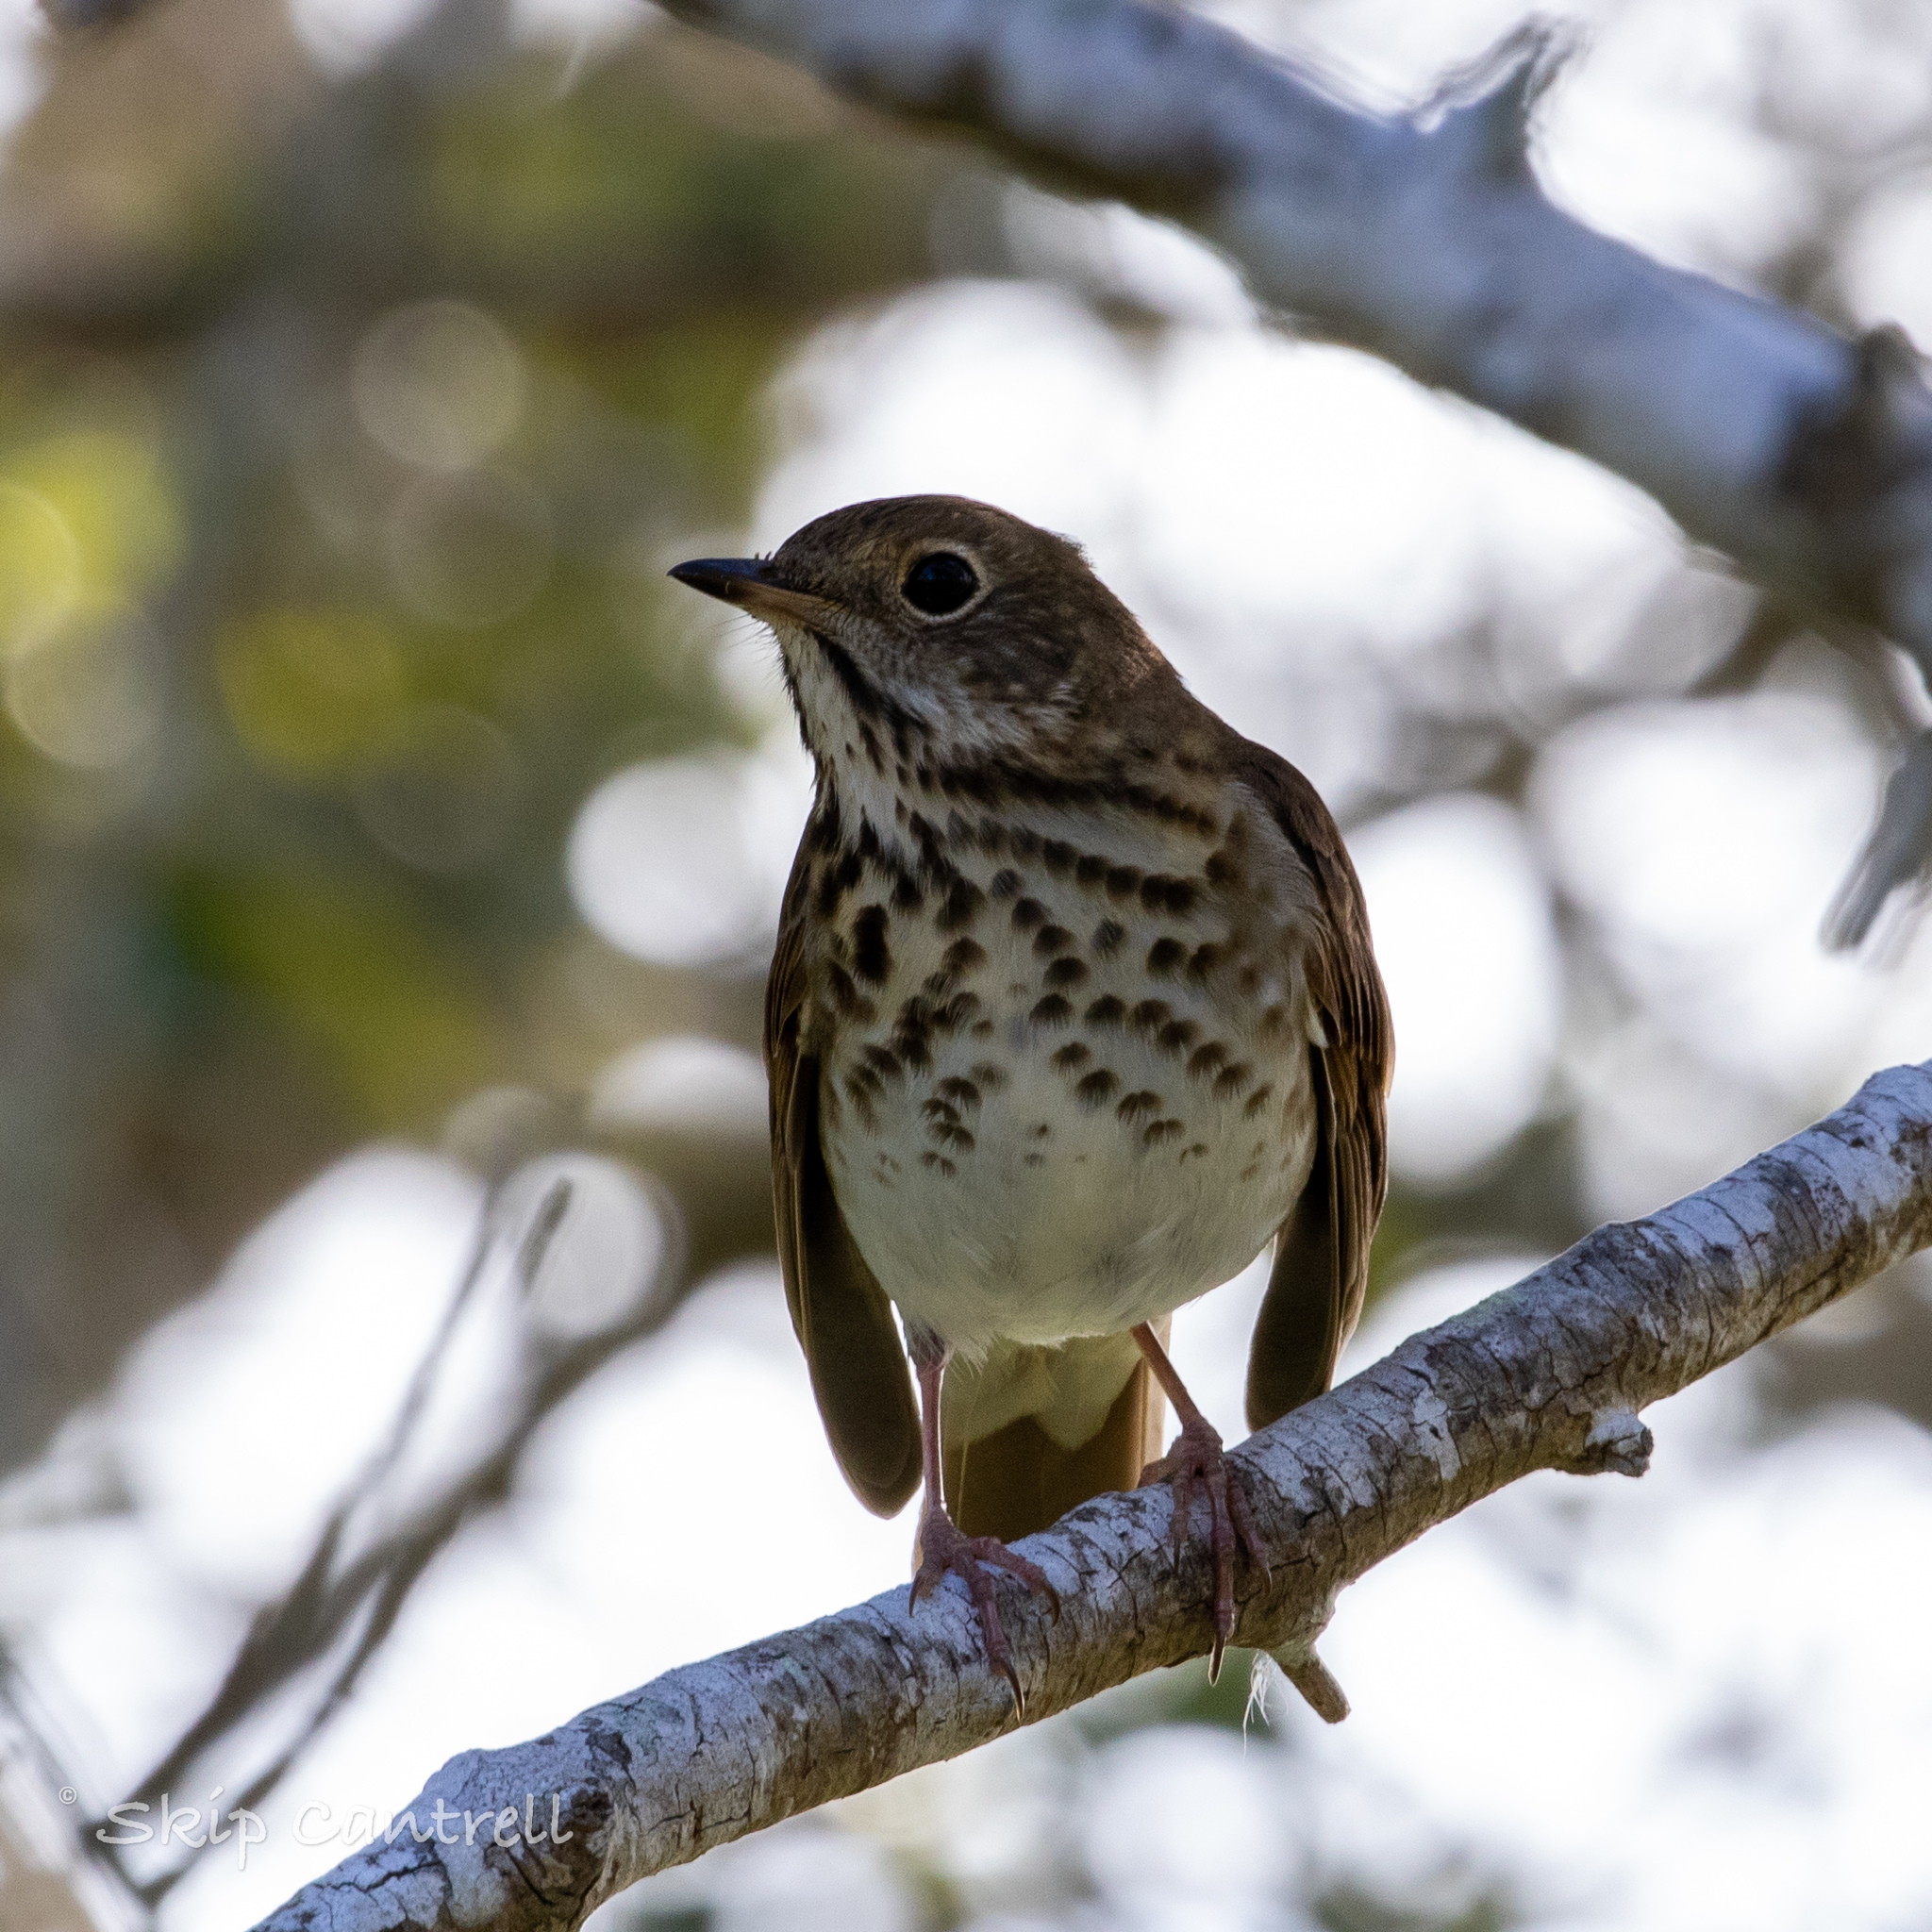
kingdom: Animalia
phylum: Chordata
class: Aves
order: Passeriformes
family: Turdidae
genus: Catharus
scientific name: Catharus guttatus
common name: Hermit thrush
